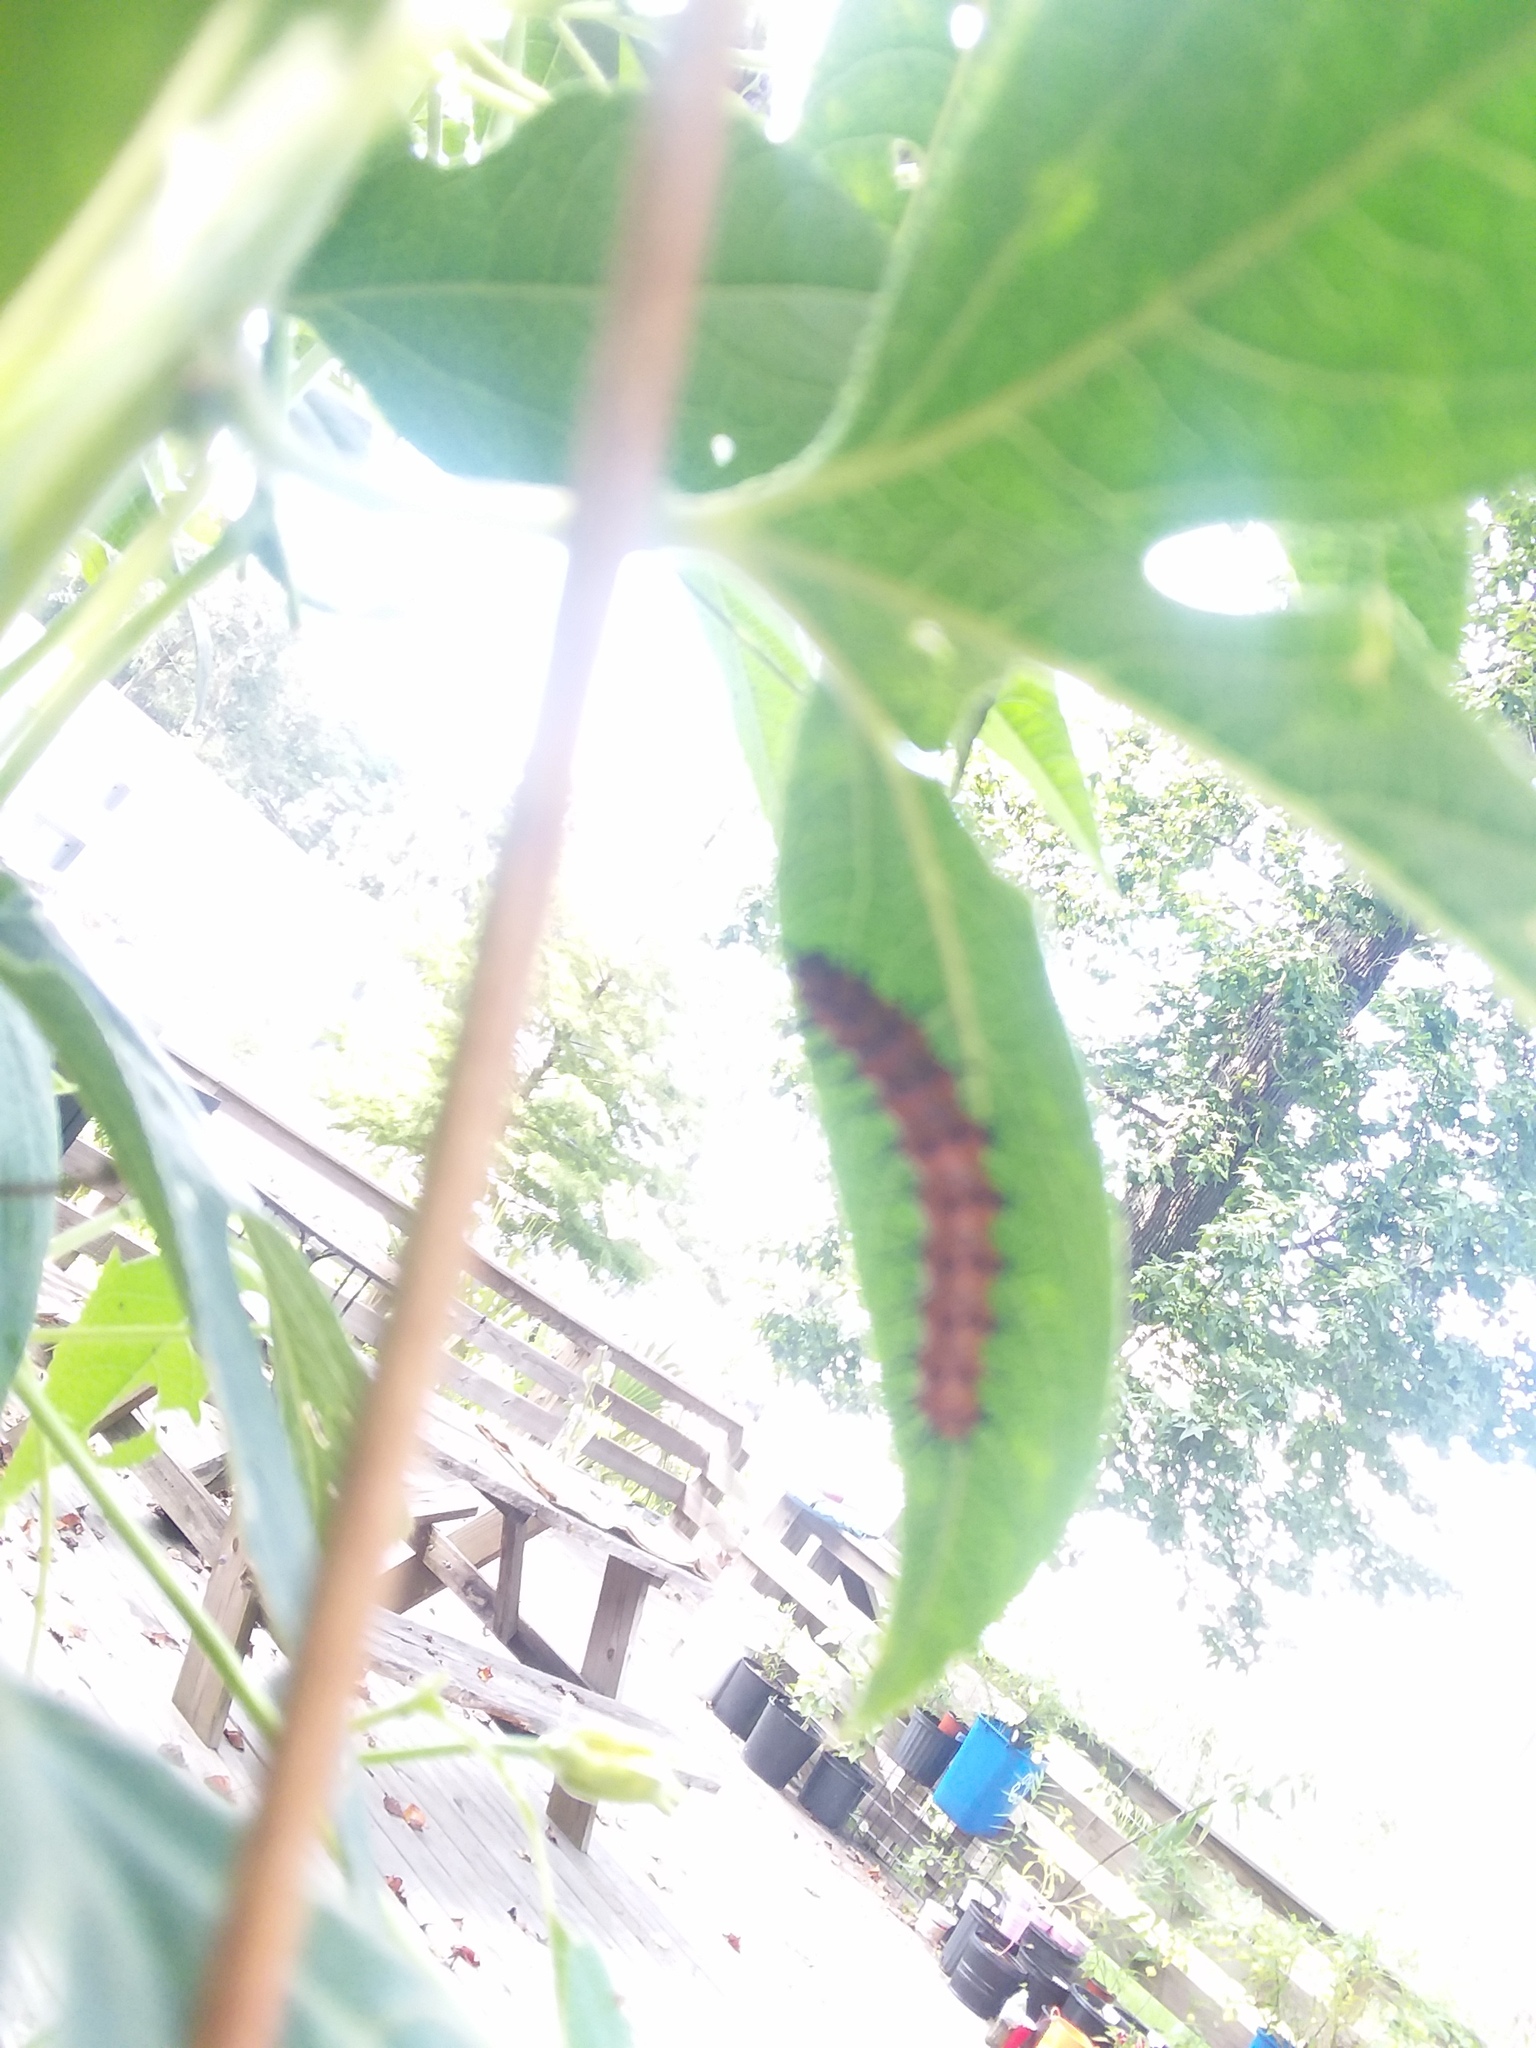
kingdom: Animalia
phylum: Arthropoda
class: Insecta
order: Lepidoptera
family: Nymphalidae
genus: Dione
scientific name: Dione vanillae
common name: Gulf fritillary
